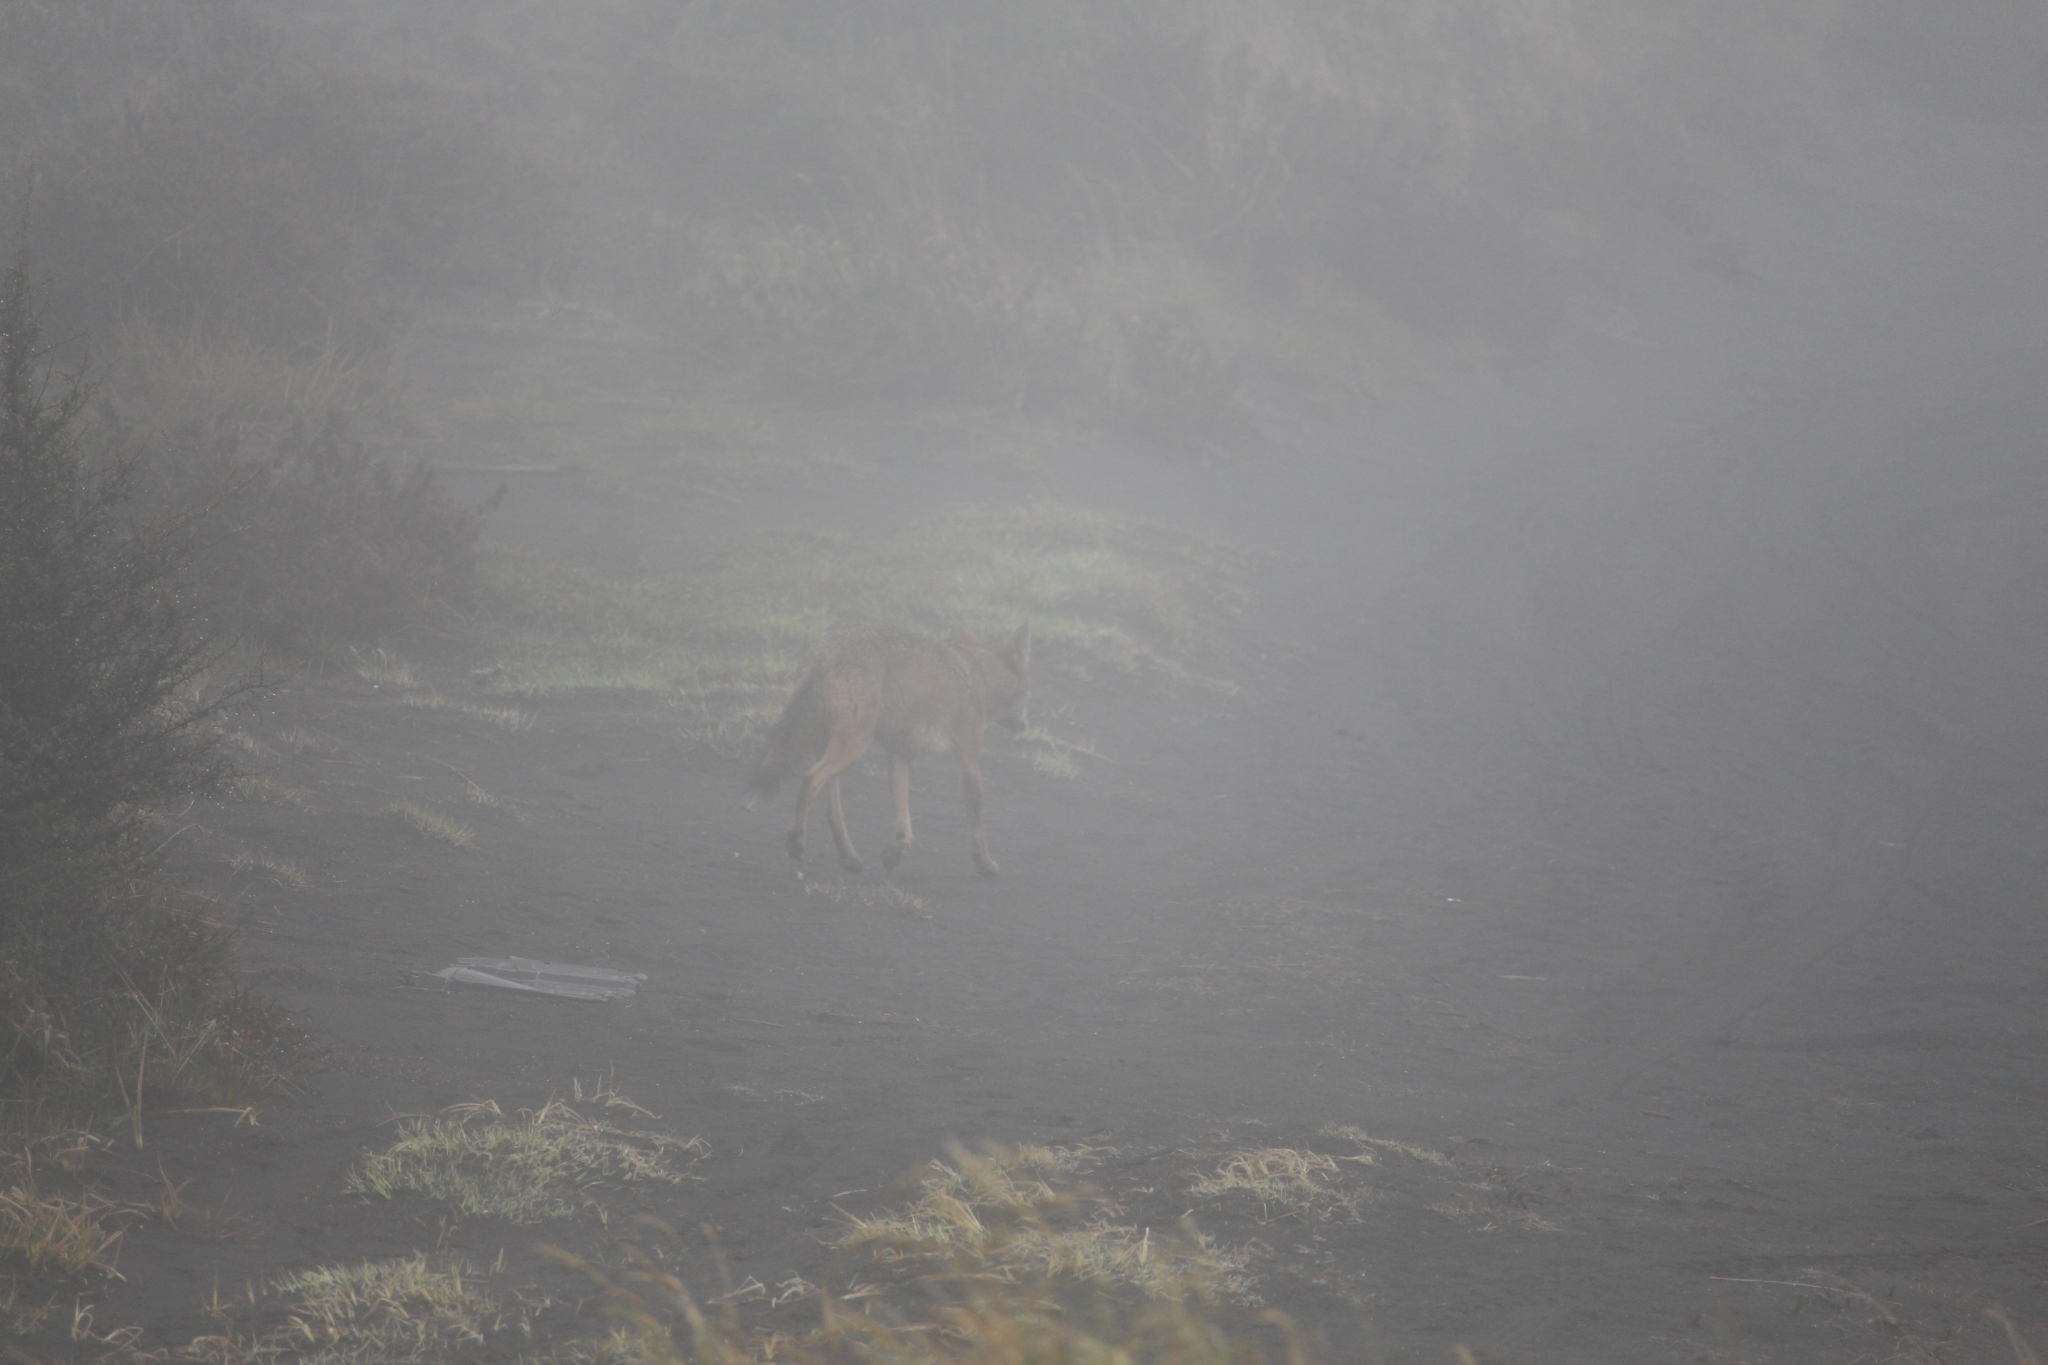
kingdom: Animalia
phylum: Chordata
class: Mammalia
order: Carnivora
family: Canidae
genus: Canis
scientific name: Canis latrans
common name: Coyote
